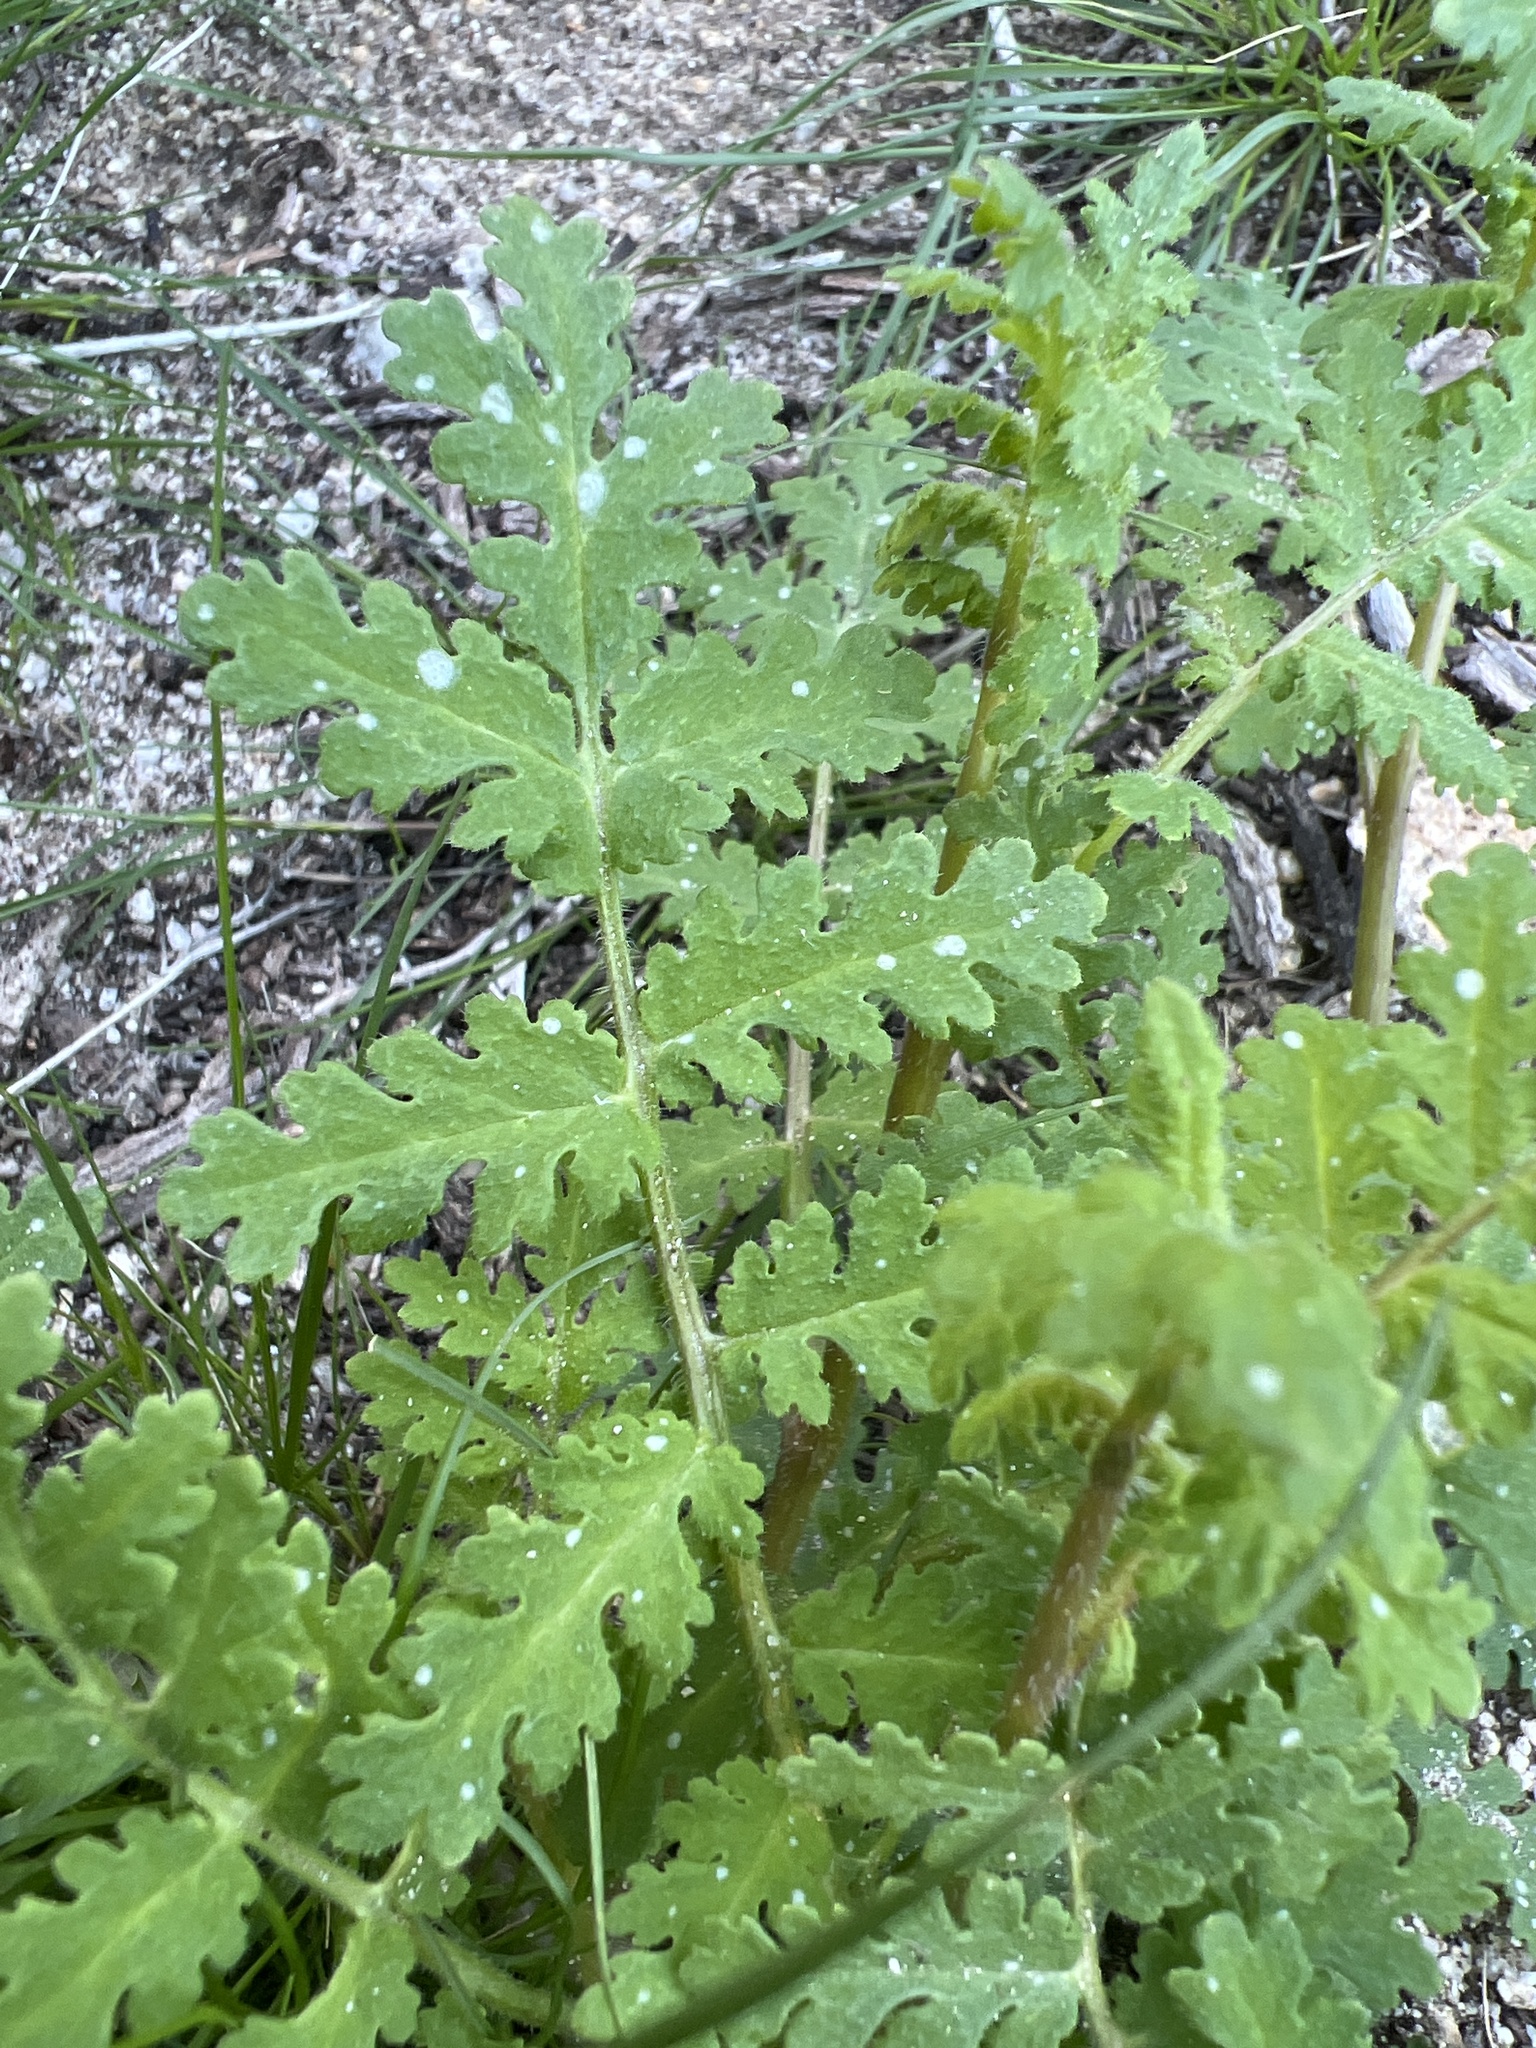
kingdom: Plantae
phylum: Tracheophyta
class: Magnoliopsida
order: Boraginales
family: Hydrophyllaceae
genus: Phacelia
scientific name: Phacelia distans
